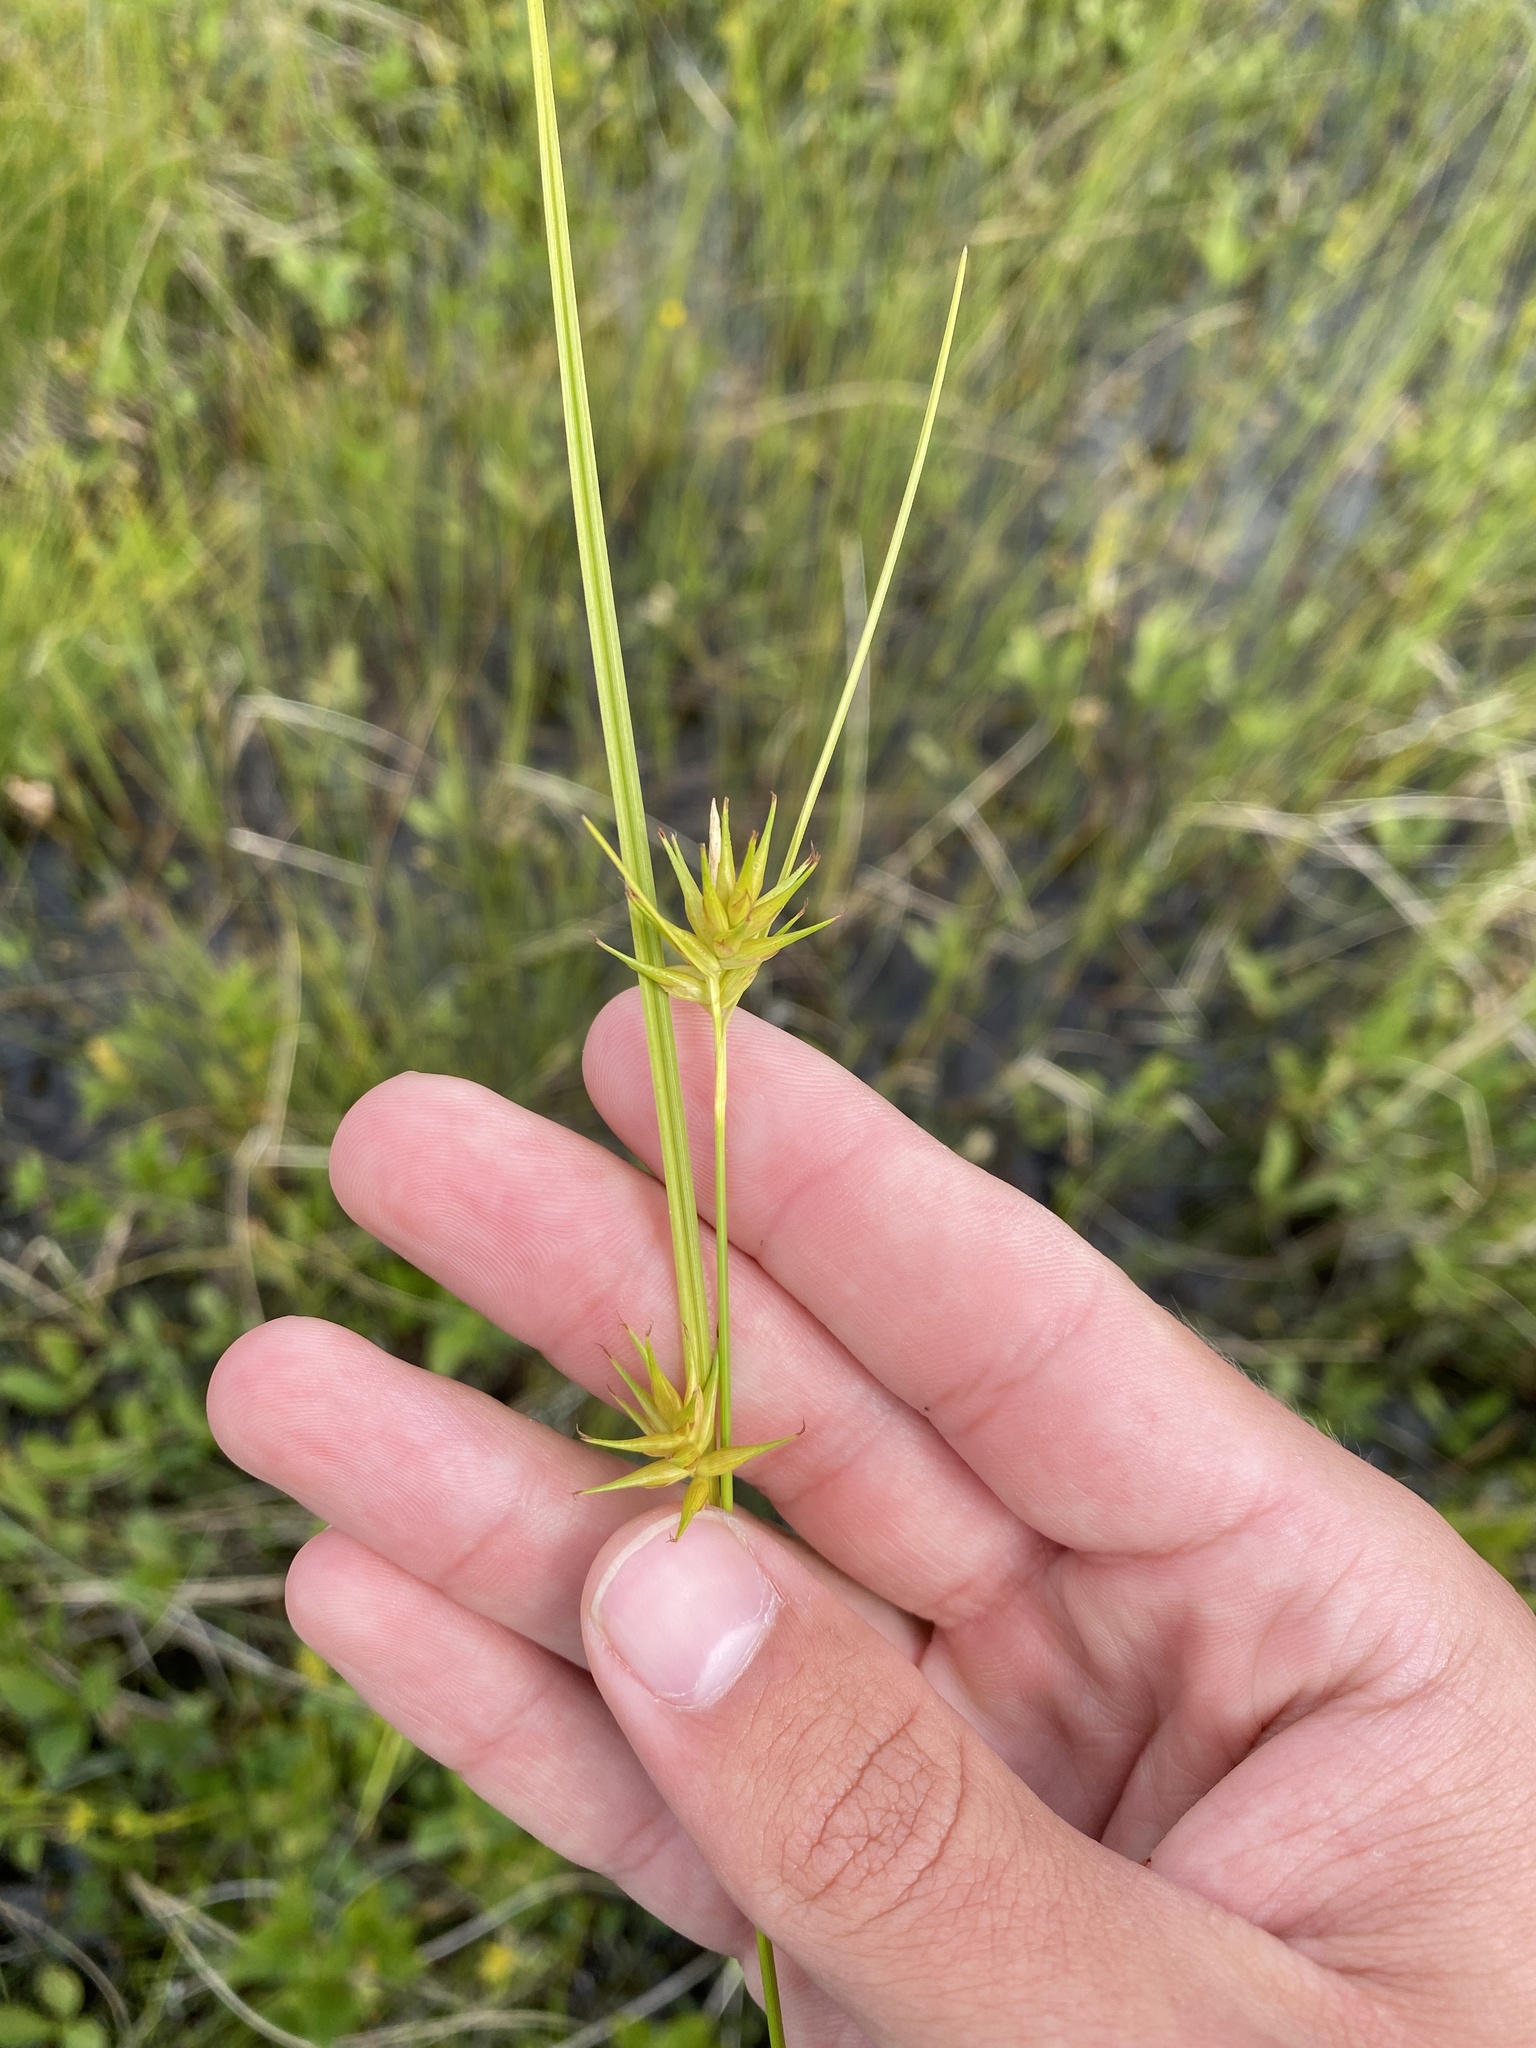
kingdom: Plantae
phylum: Tracheophyta
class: Liliopsida
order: Poales
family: Cyperaceae
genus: Carex
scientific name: Carex michauxiana
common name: Michaux's sedge
